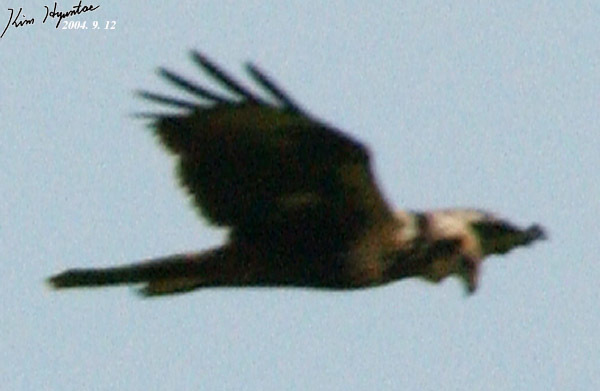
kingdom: Animalia
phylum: Chordata
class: Aves
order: Accipitriformes
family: Accipitridae
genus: Circus
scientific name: Circus spilonotus
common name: Eastern marsh-harrier
